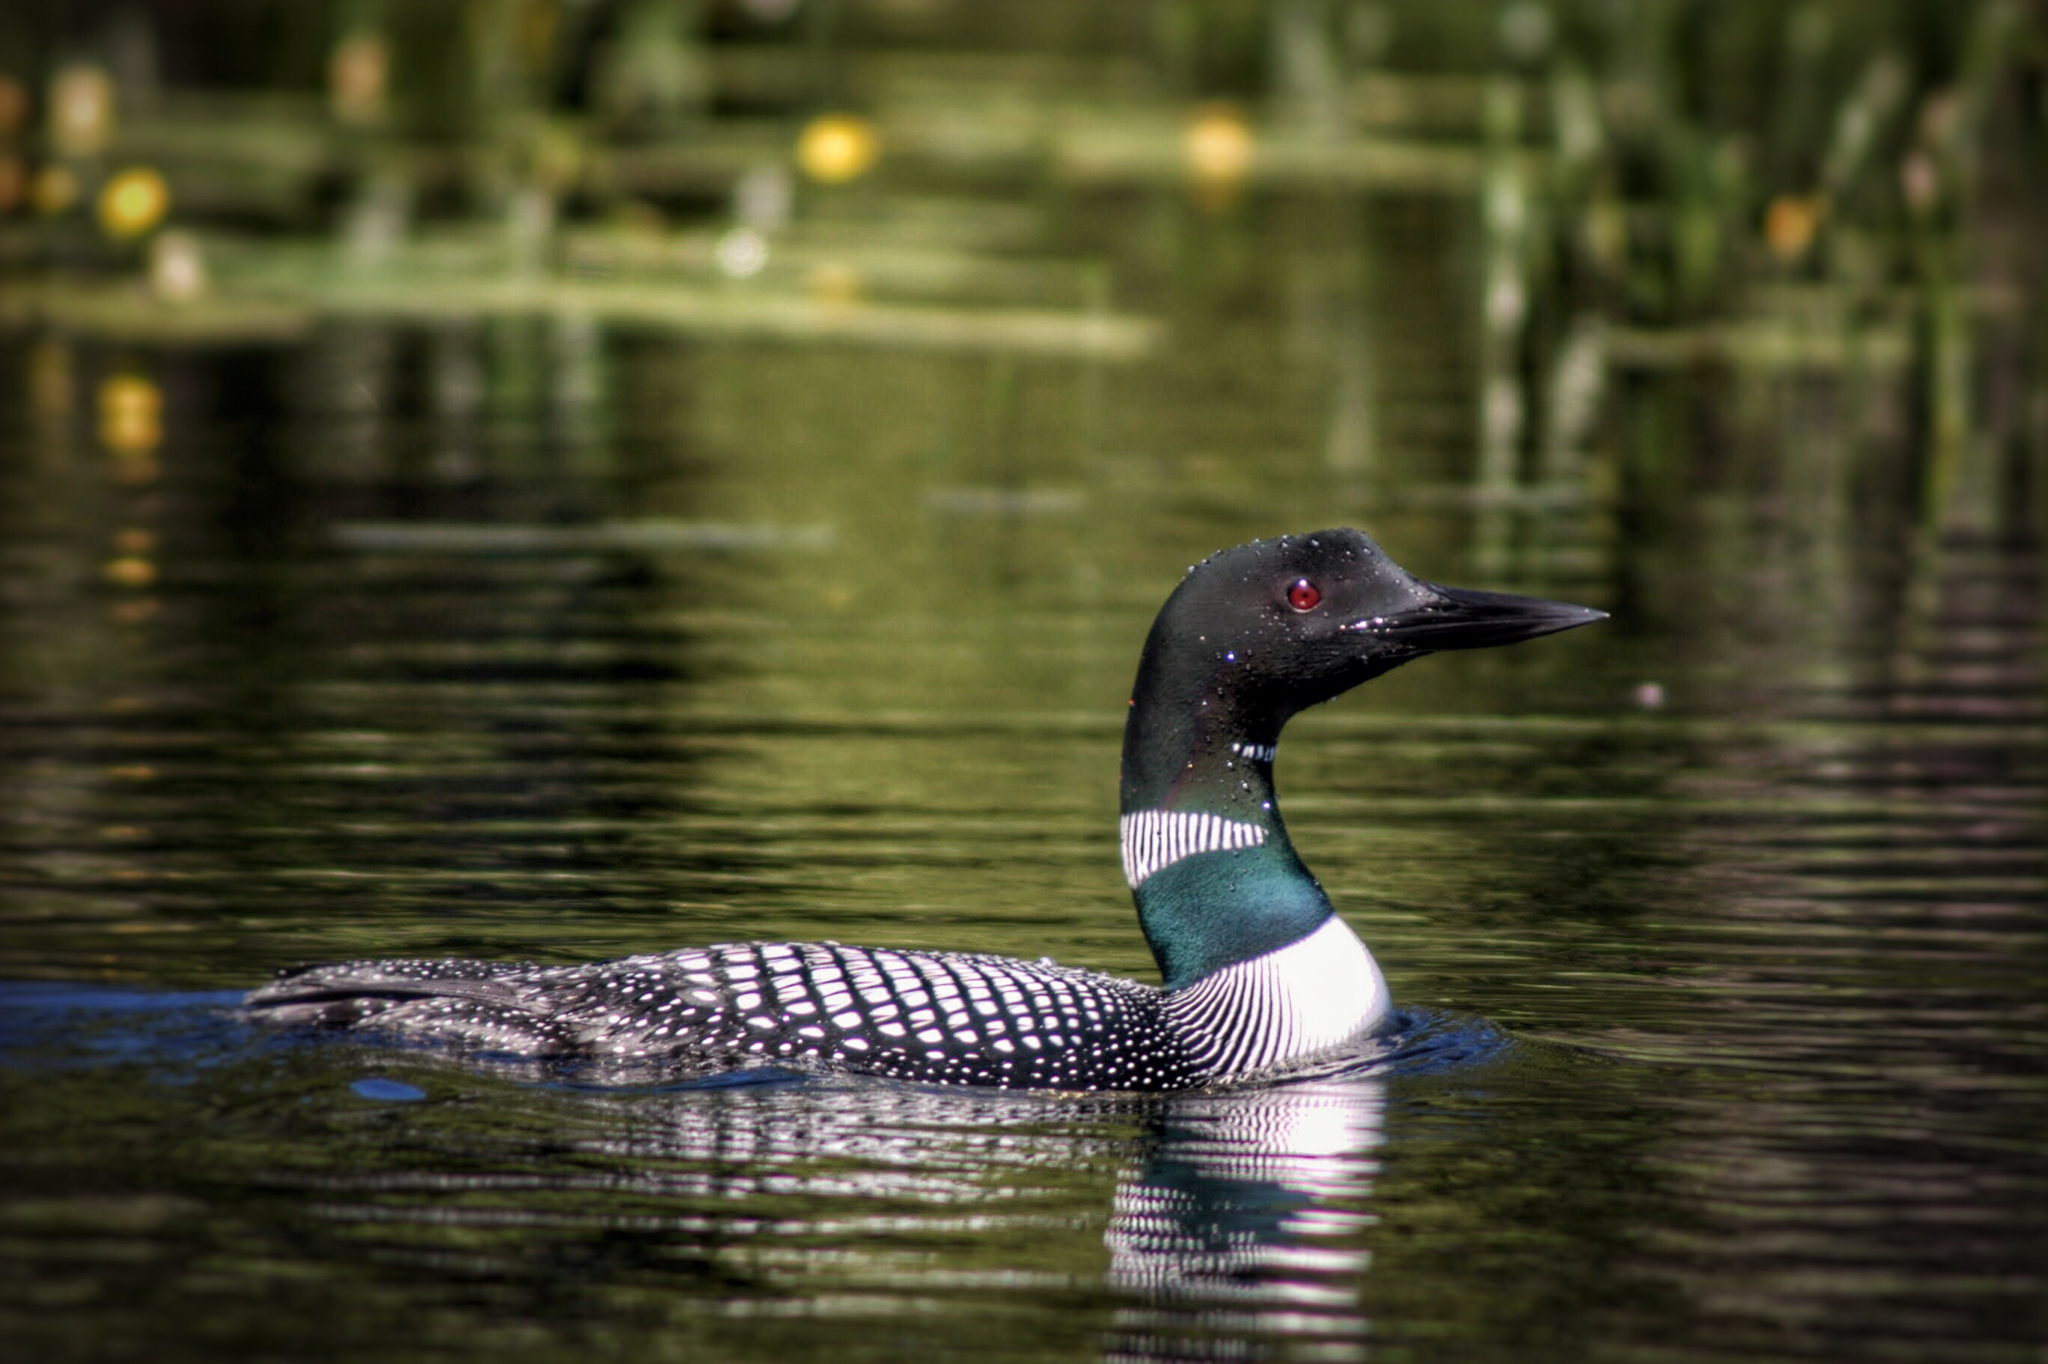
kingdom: Animalia
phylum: Chordata
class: Aves
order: Gaviiformes
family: Gaviidae
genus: Gavia
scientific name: Gavia immer
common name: Common loon
